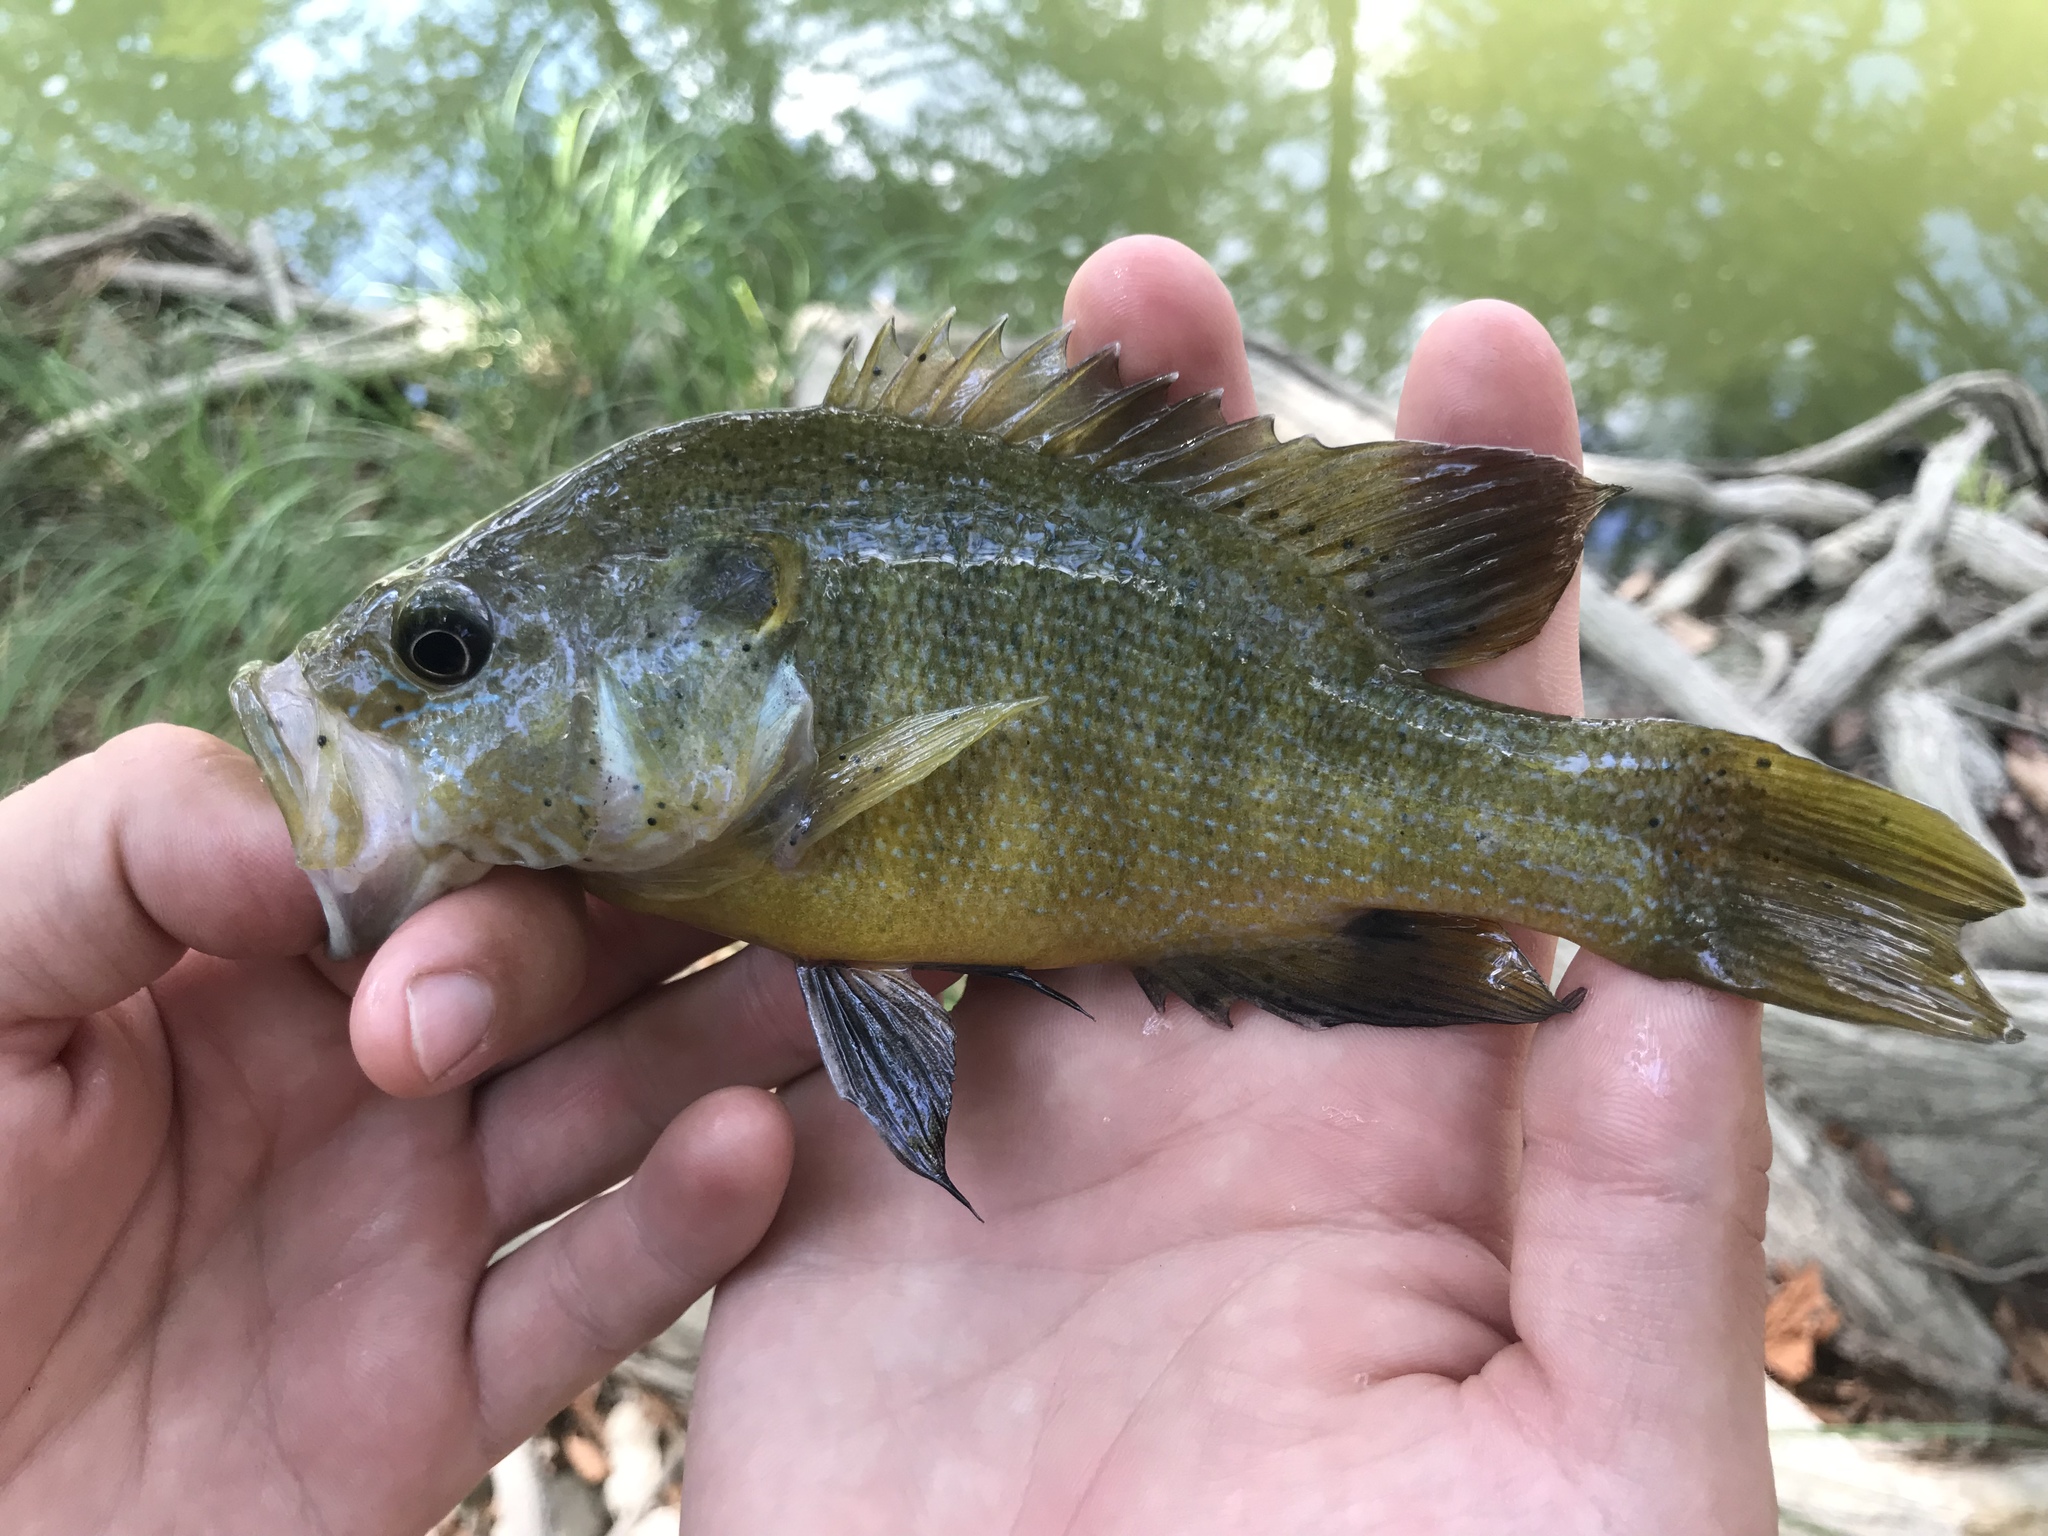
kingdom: Animalia
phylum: Chordata
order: Perciformes
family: Centrarchidae
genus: Lepomis
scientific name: Lepomis cyanellus
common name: Green sunfish
